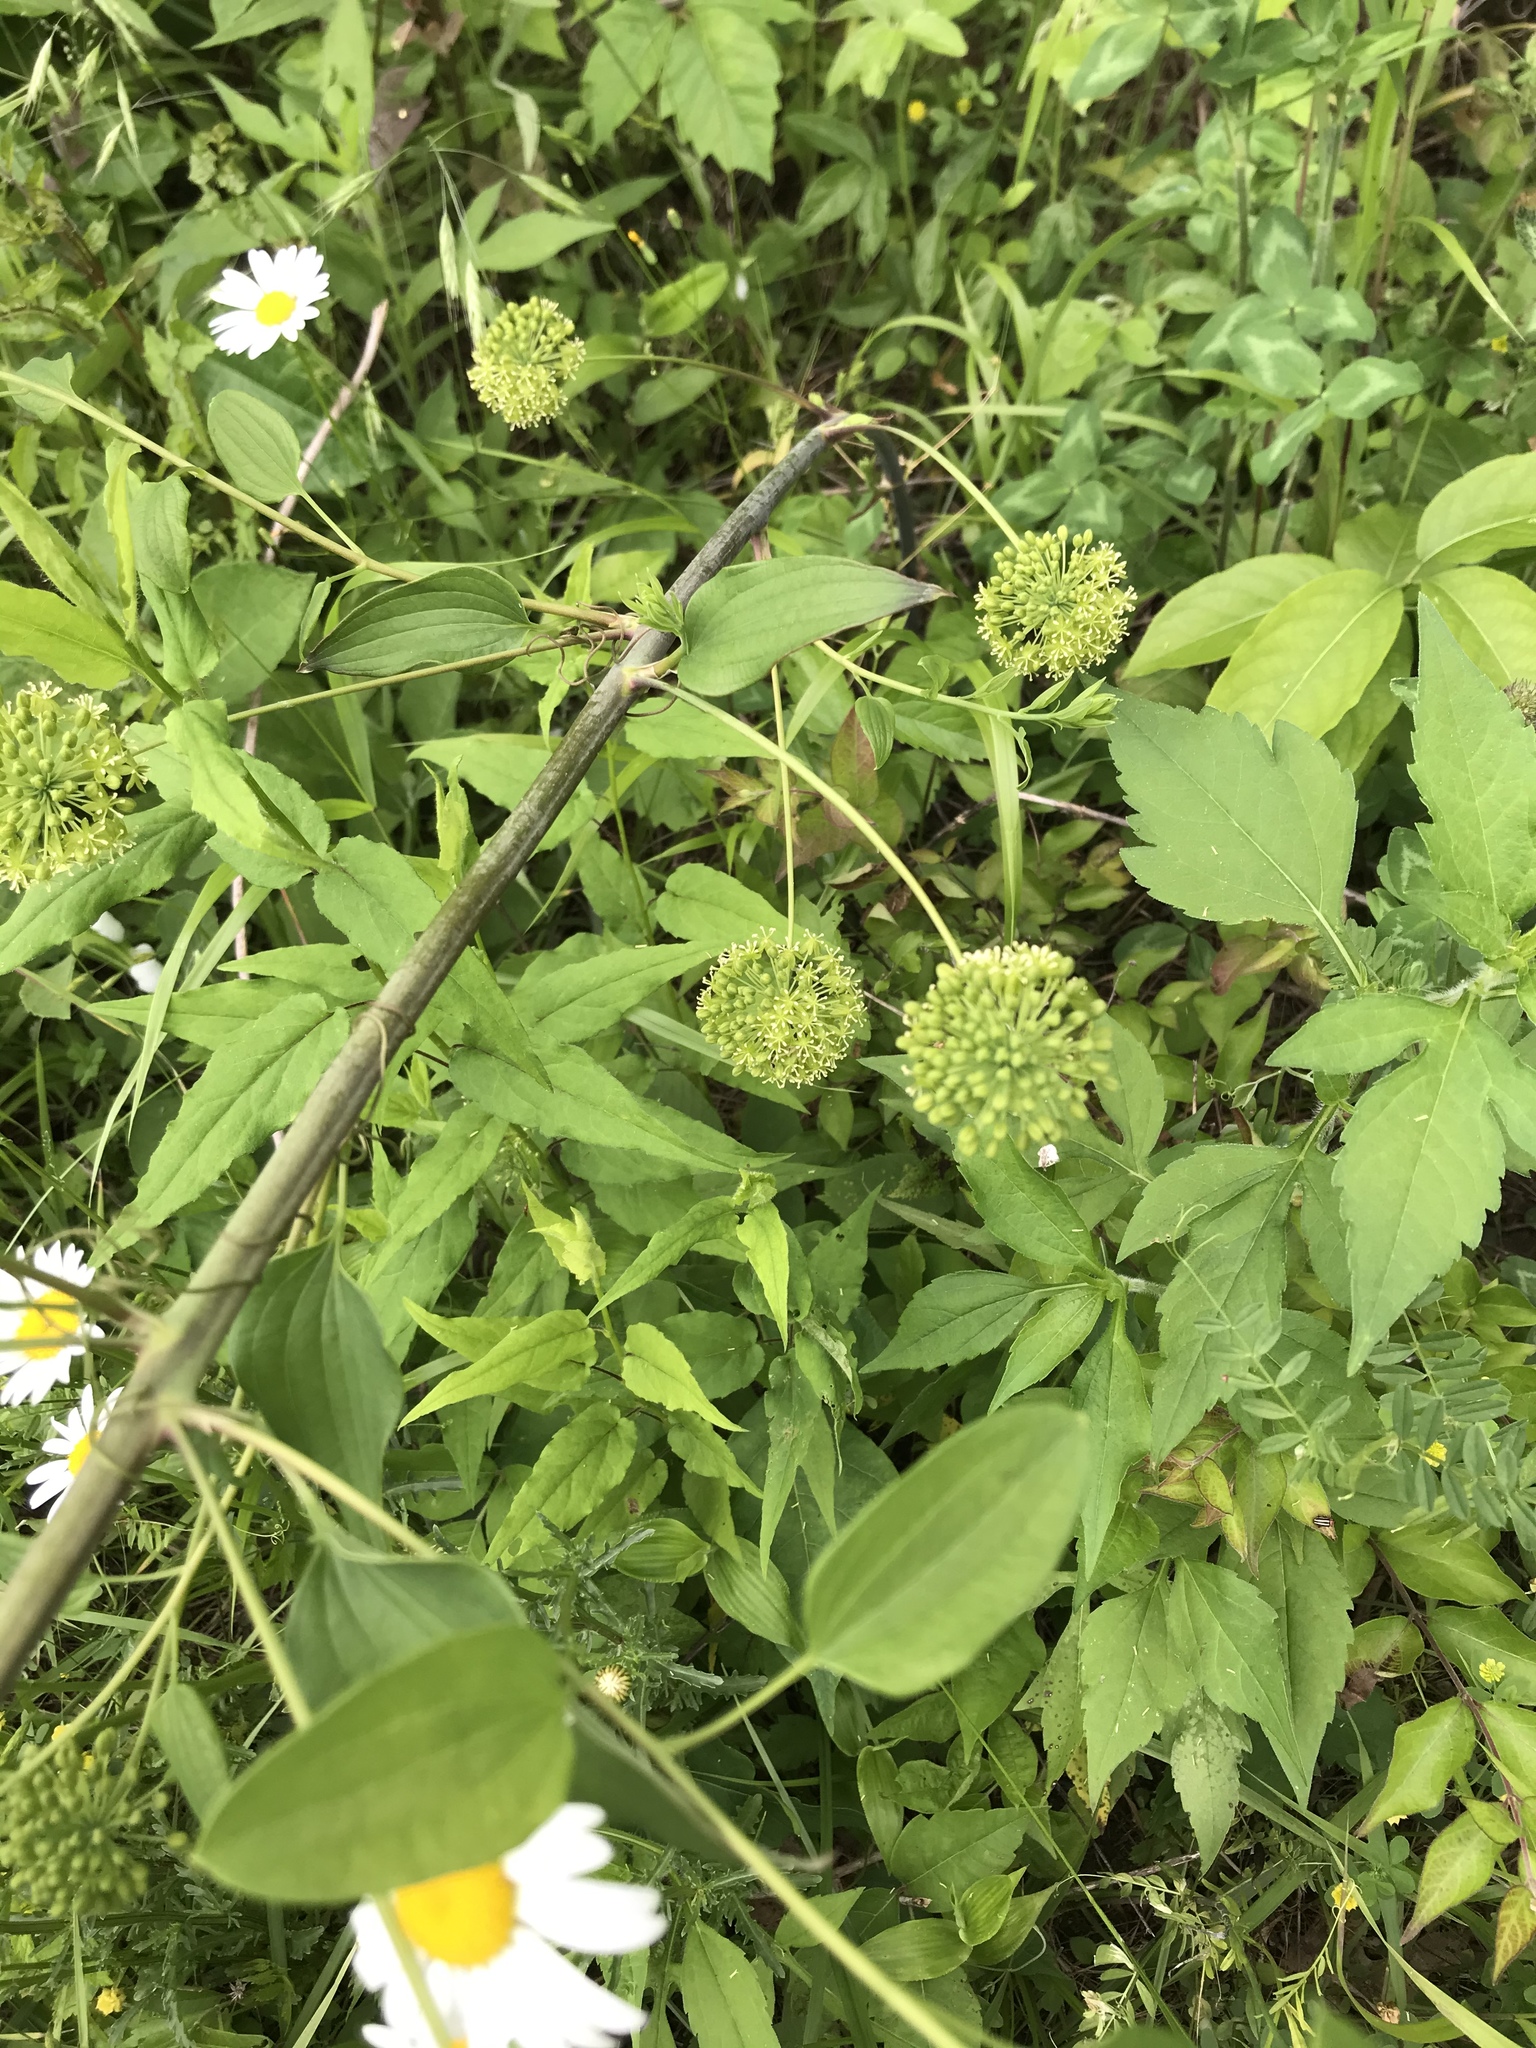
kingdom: Plantae
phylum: Tracheophyta
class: Liliopsida
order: Liliales
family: Smilacaceae
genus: Smilax
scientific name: Smilax herbacea
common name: Jacob's-ladder
